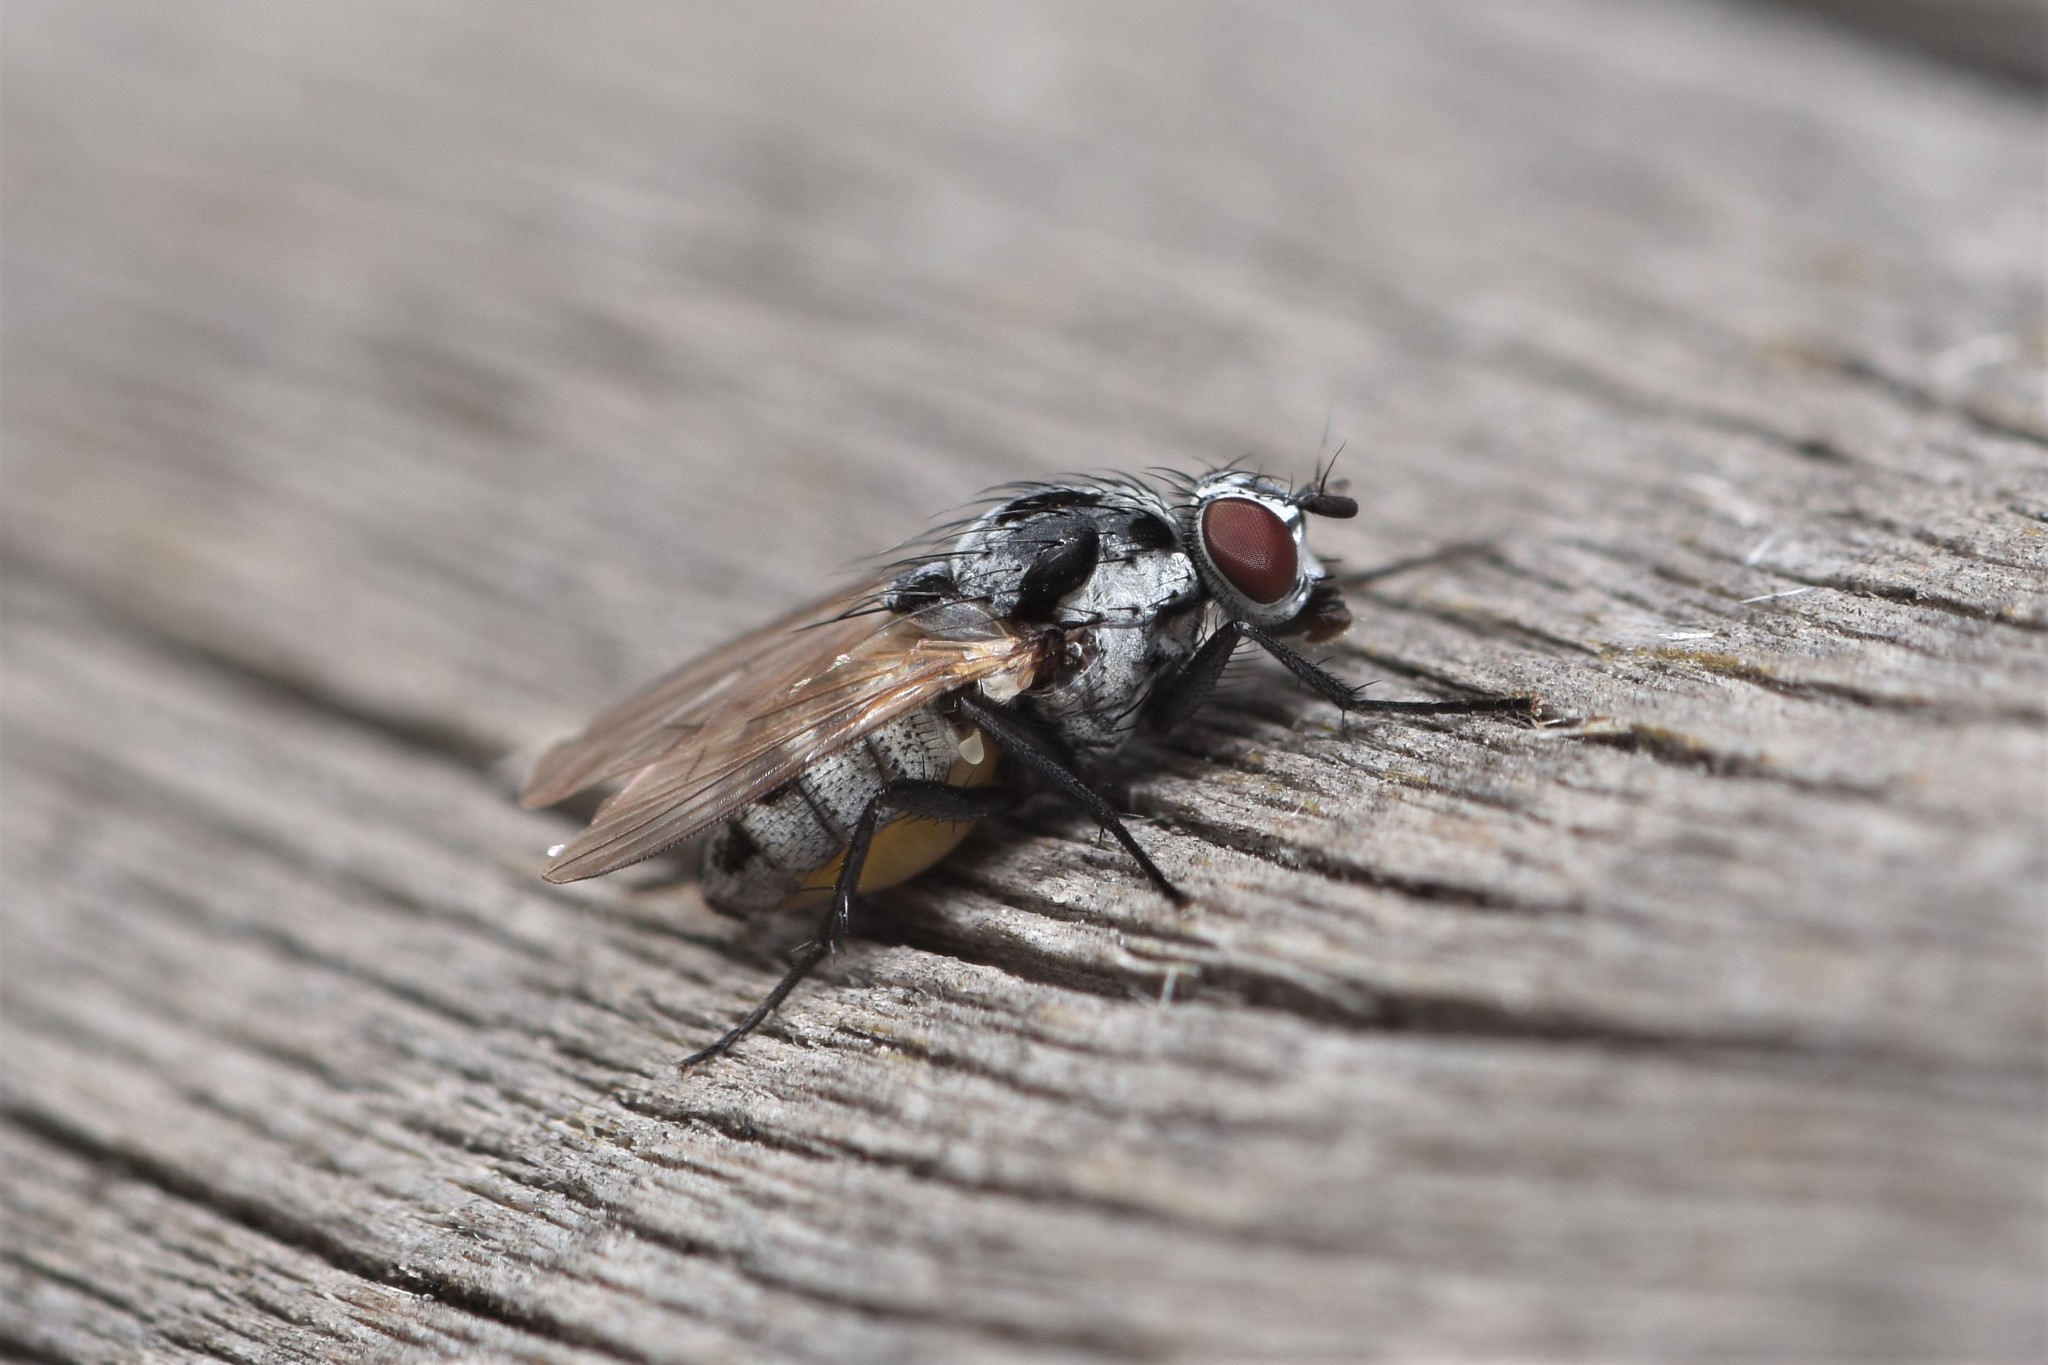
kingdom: Animalia
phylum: Arthropoda
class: Insecta
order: Diptera
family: Anthomyiidae
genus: Anthomyia
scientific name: Anthomyia procellaris
